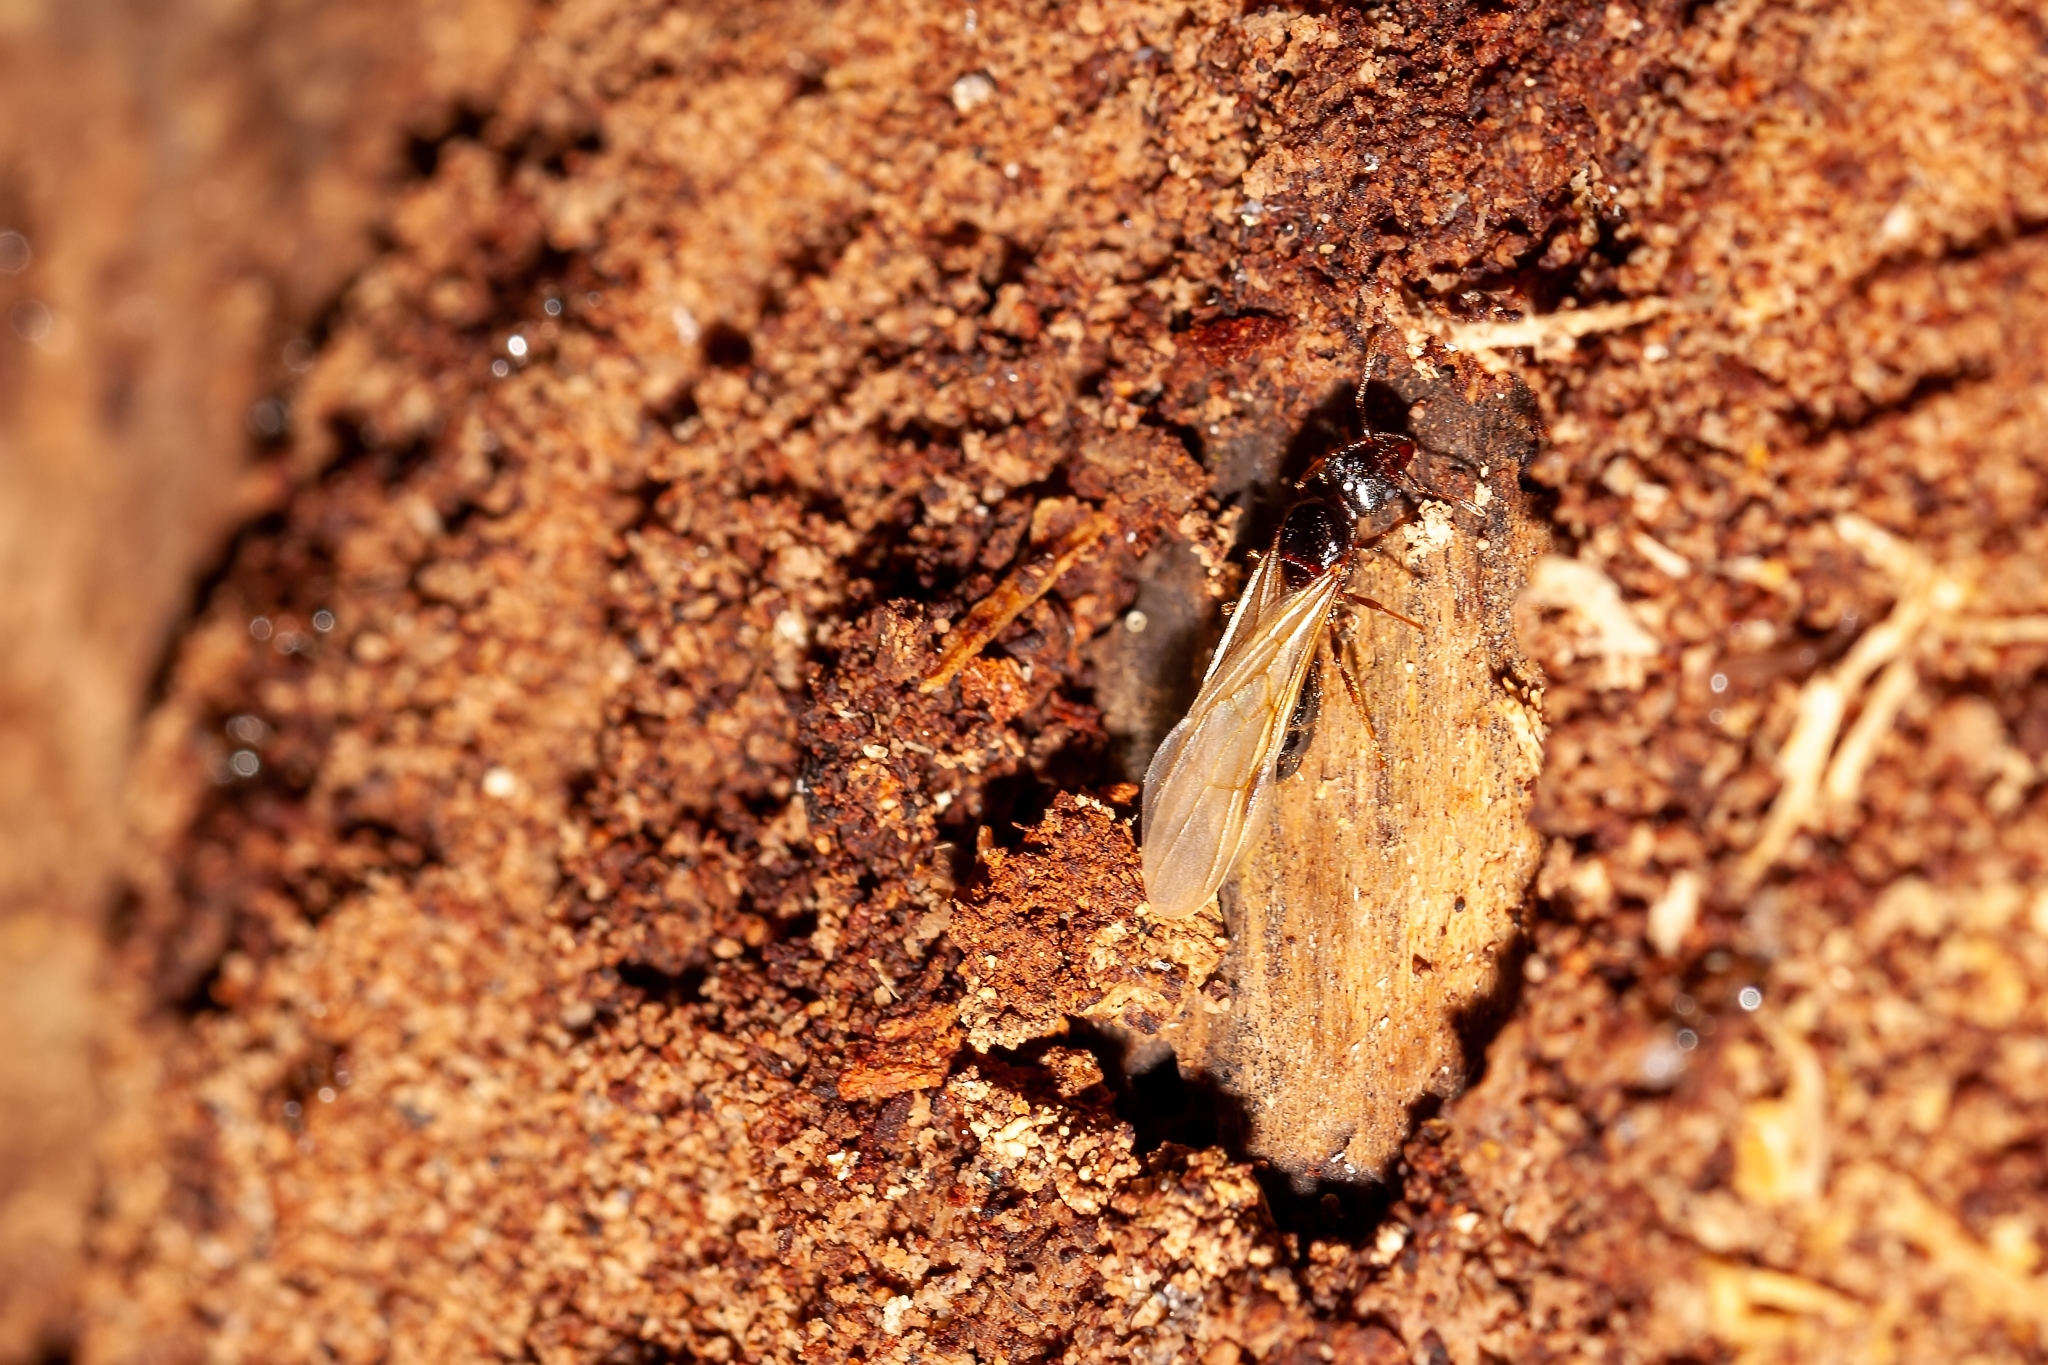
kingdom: Animalia
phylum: Arthropoda
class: Insecta
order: Hymenoptera
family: Formicidae
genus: Pheidole
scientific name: Pheidole megacephala
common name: Bigheaded ant
